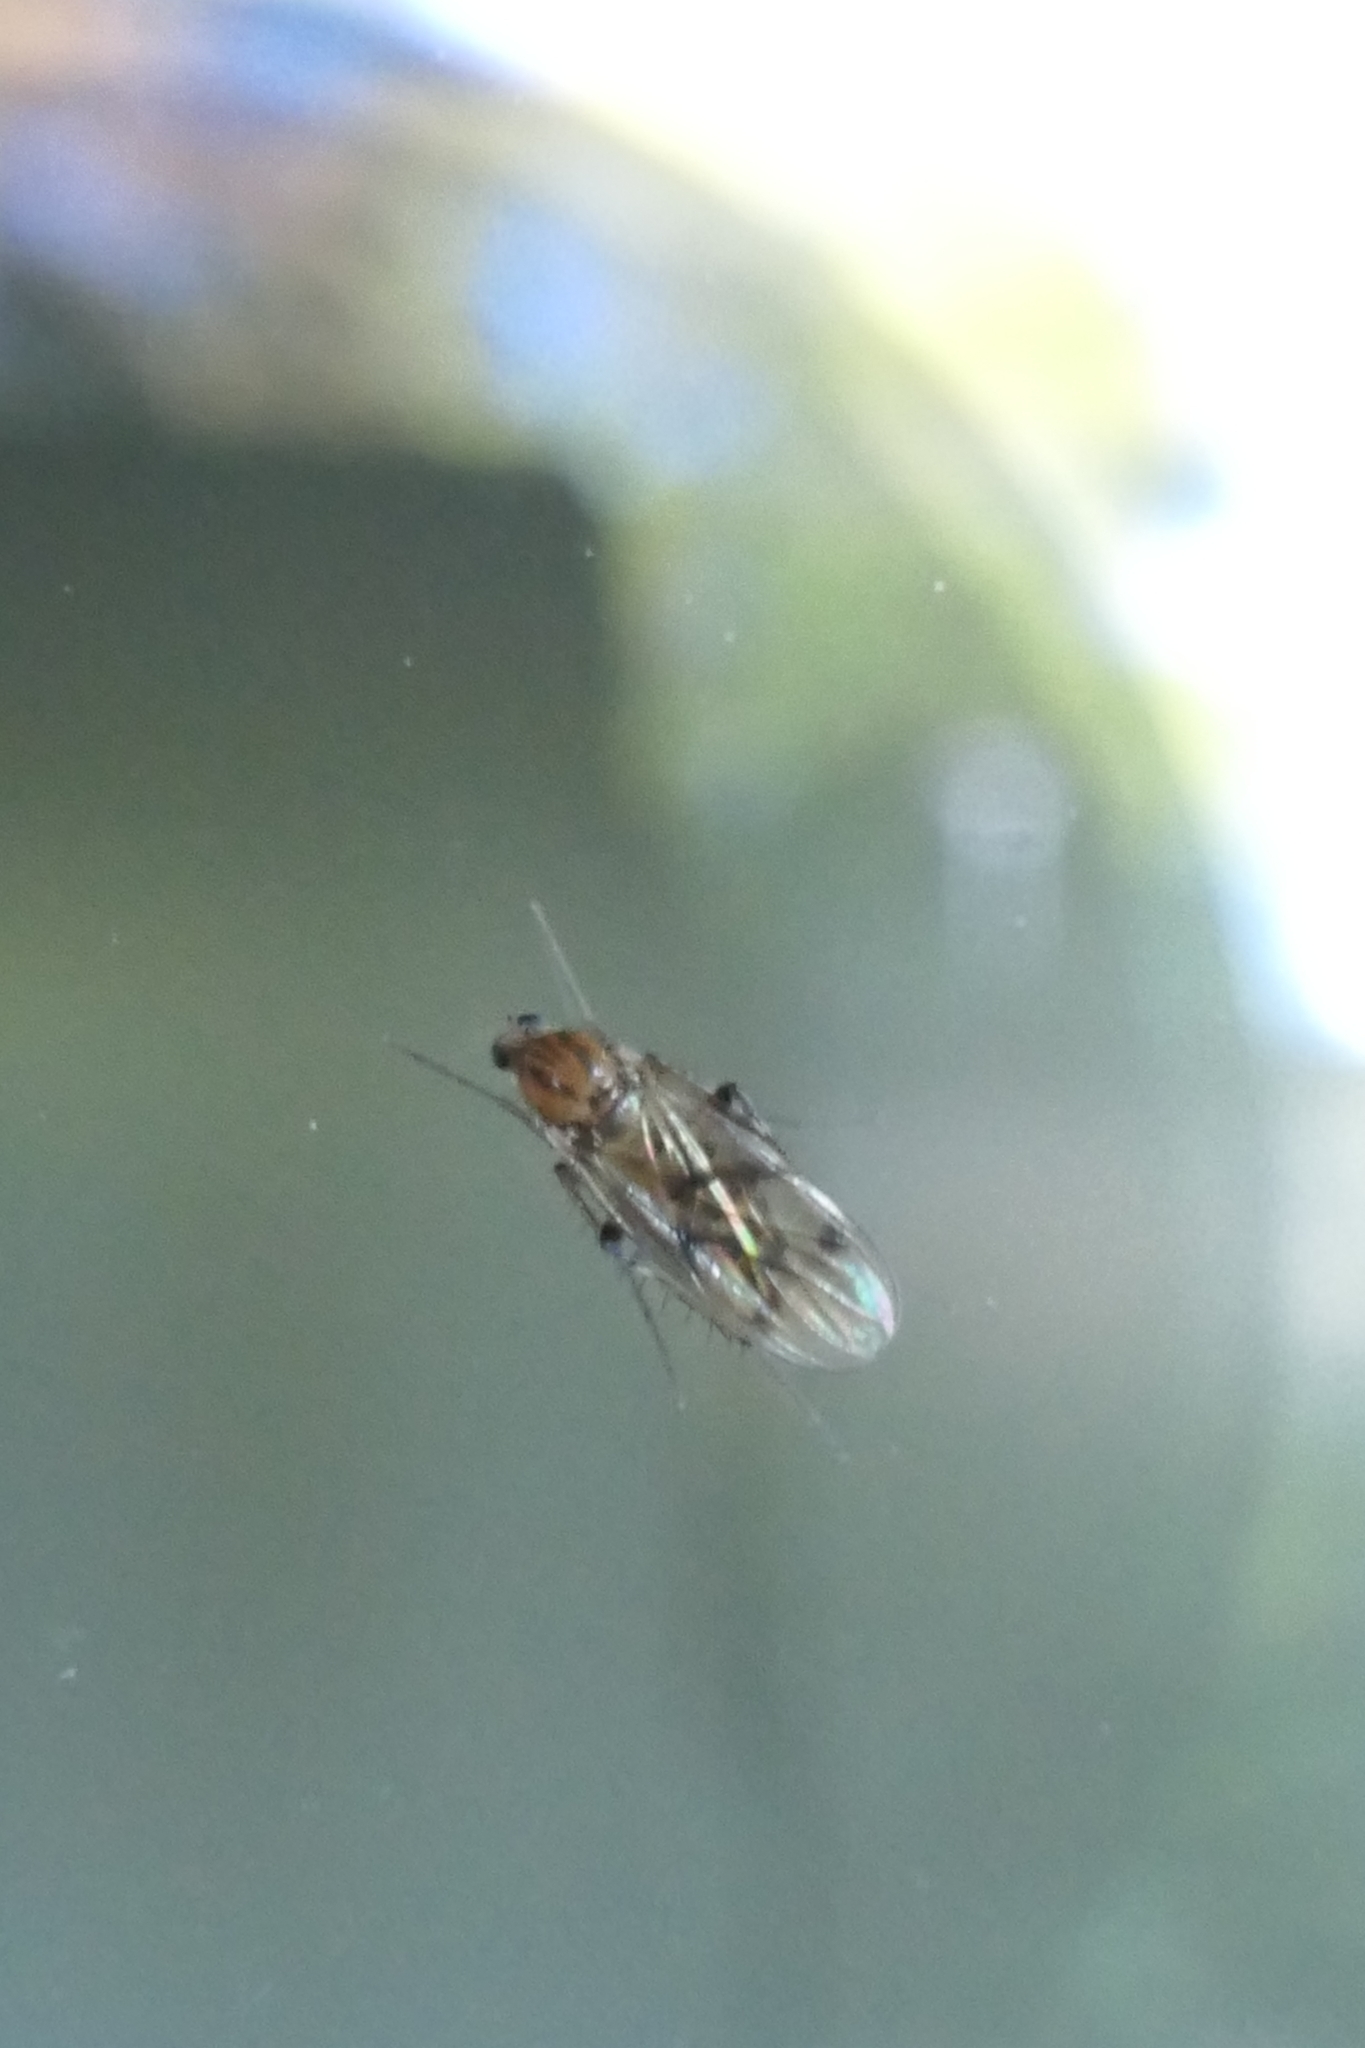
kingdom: Animalia
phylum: Arthropoda
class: Insecta
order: Diptera
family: Mycetophilidae
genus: Anomalomyia
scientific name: Anomalomyia guttata
